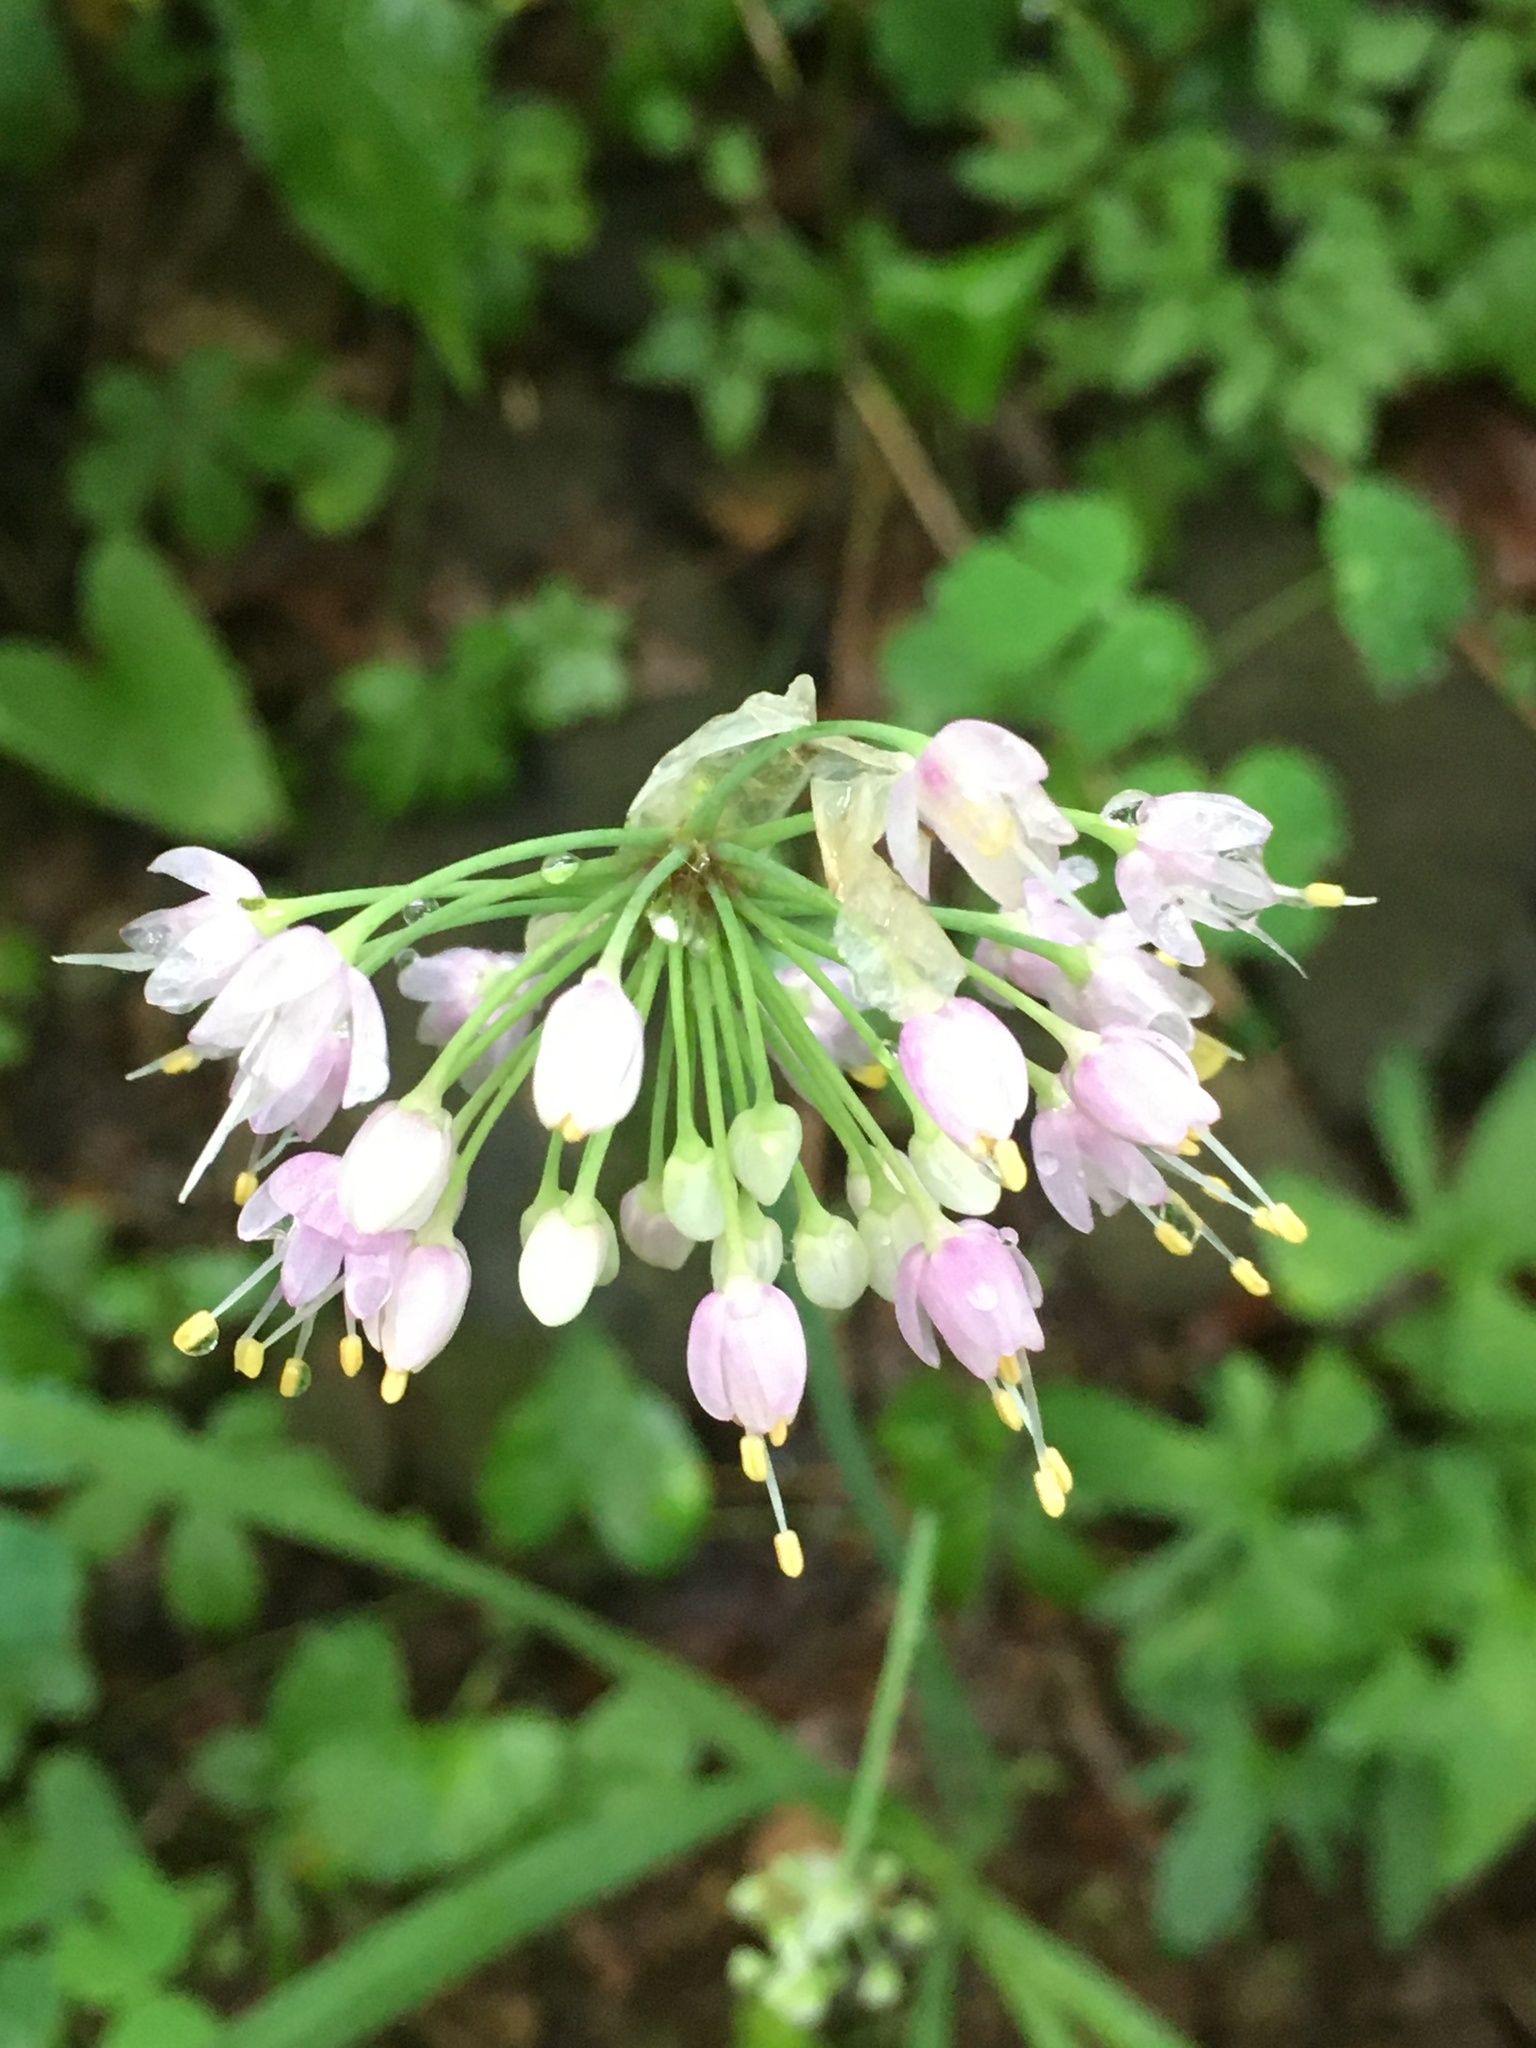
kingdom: Plantae
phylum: Tracheophyta
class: Liliopsida
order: Asparagales
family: Amaryllidaceae
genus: Allium
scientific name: Allium cernuum
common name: Nodding onion
